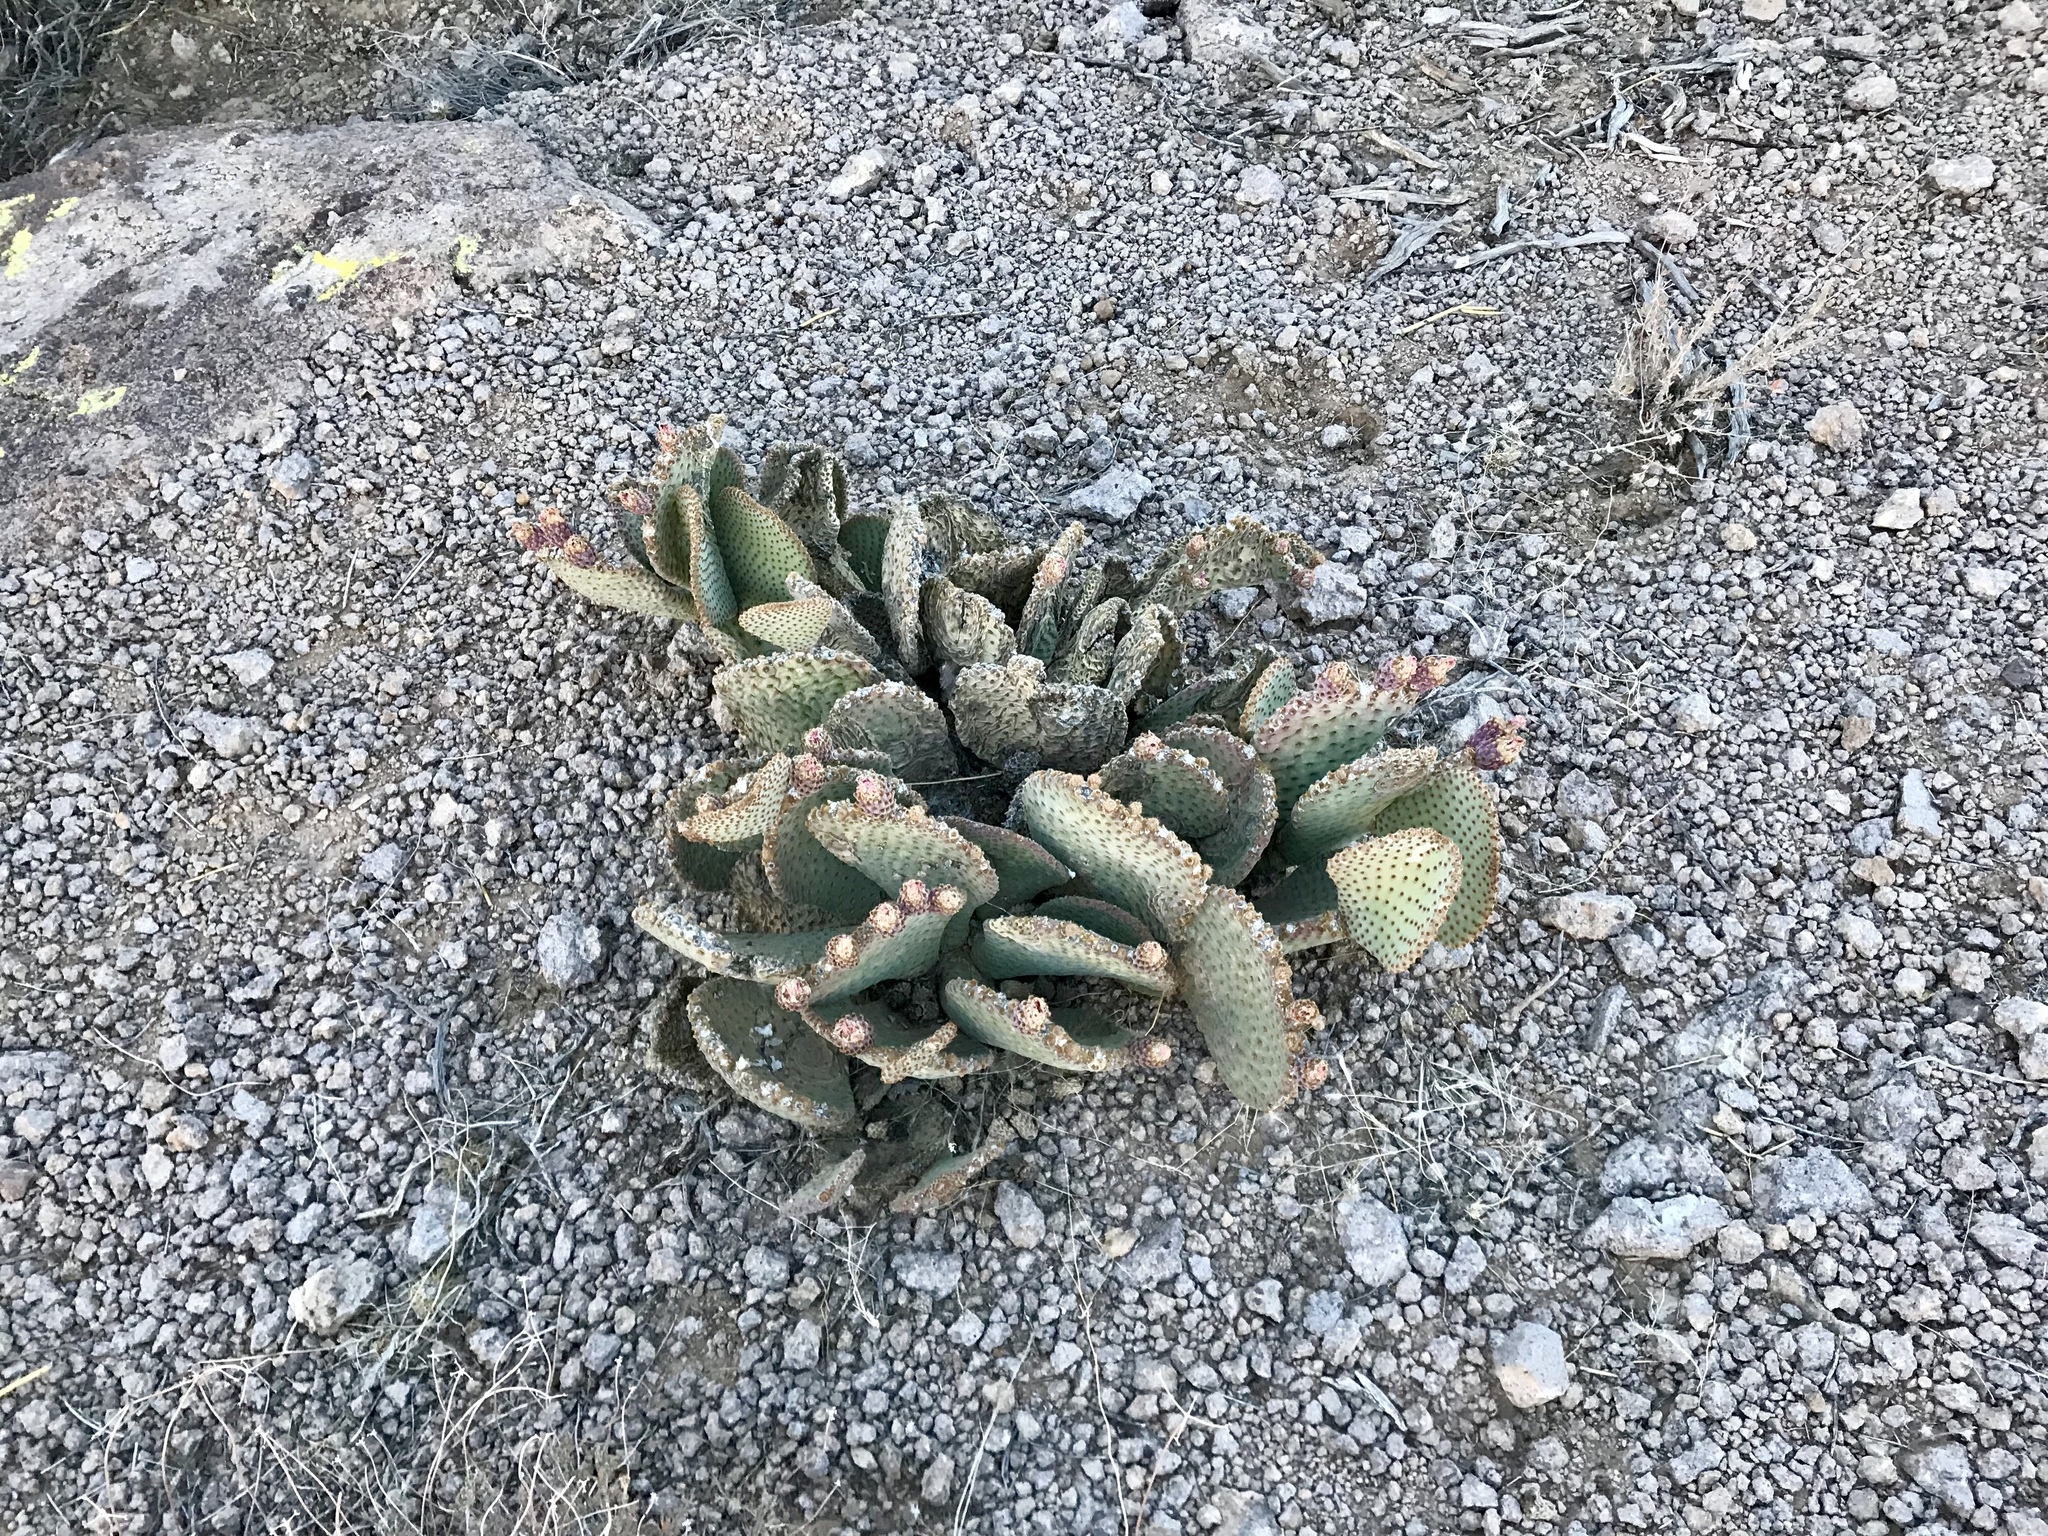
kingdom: Plantae
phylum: Tracheophyta
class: Magnoliopsida
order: Caryophyllales
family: Cactaceae
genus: Opuntia
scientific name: Opuntia basilaris
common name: Beavertail prickly-pear
